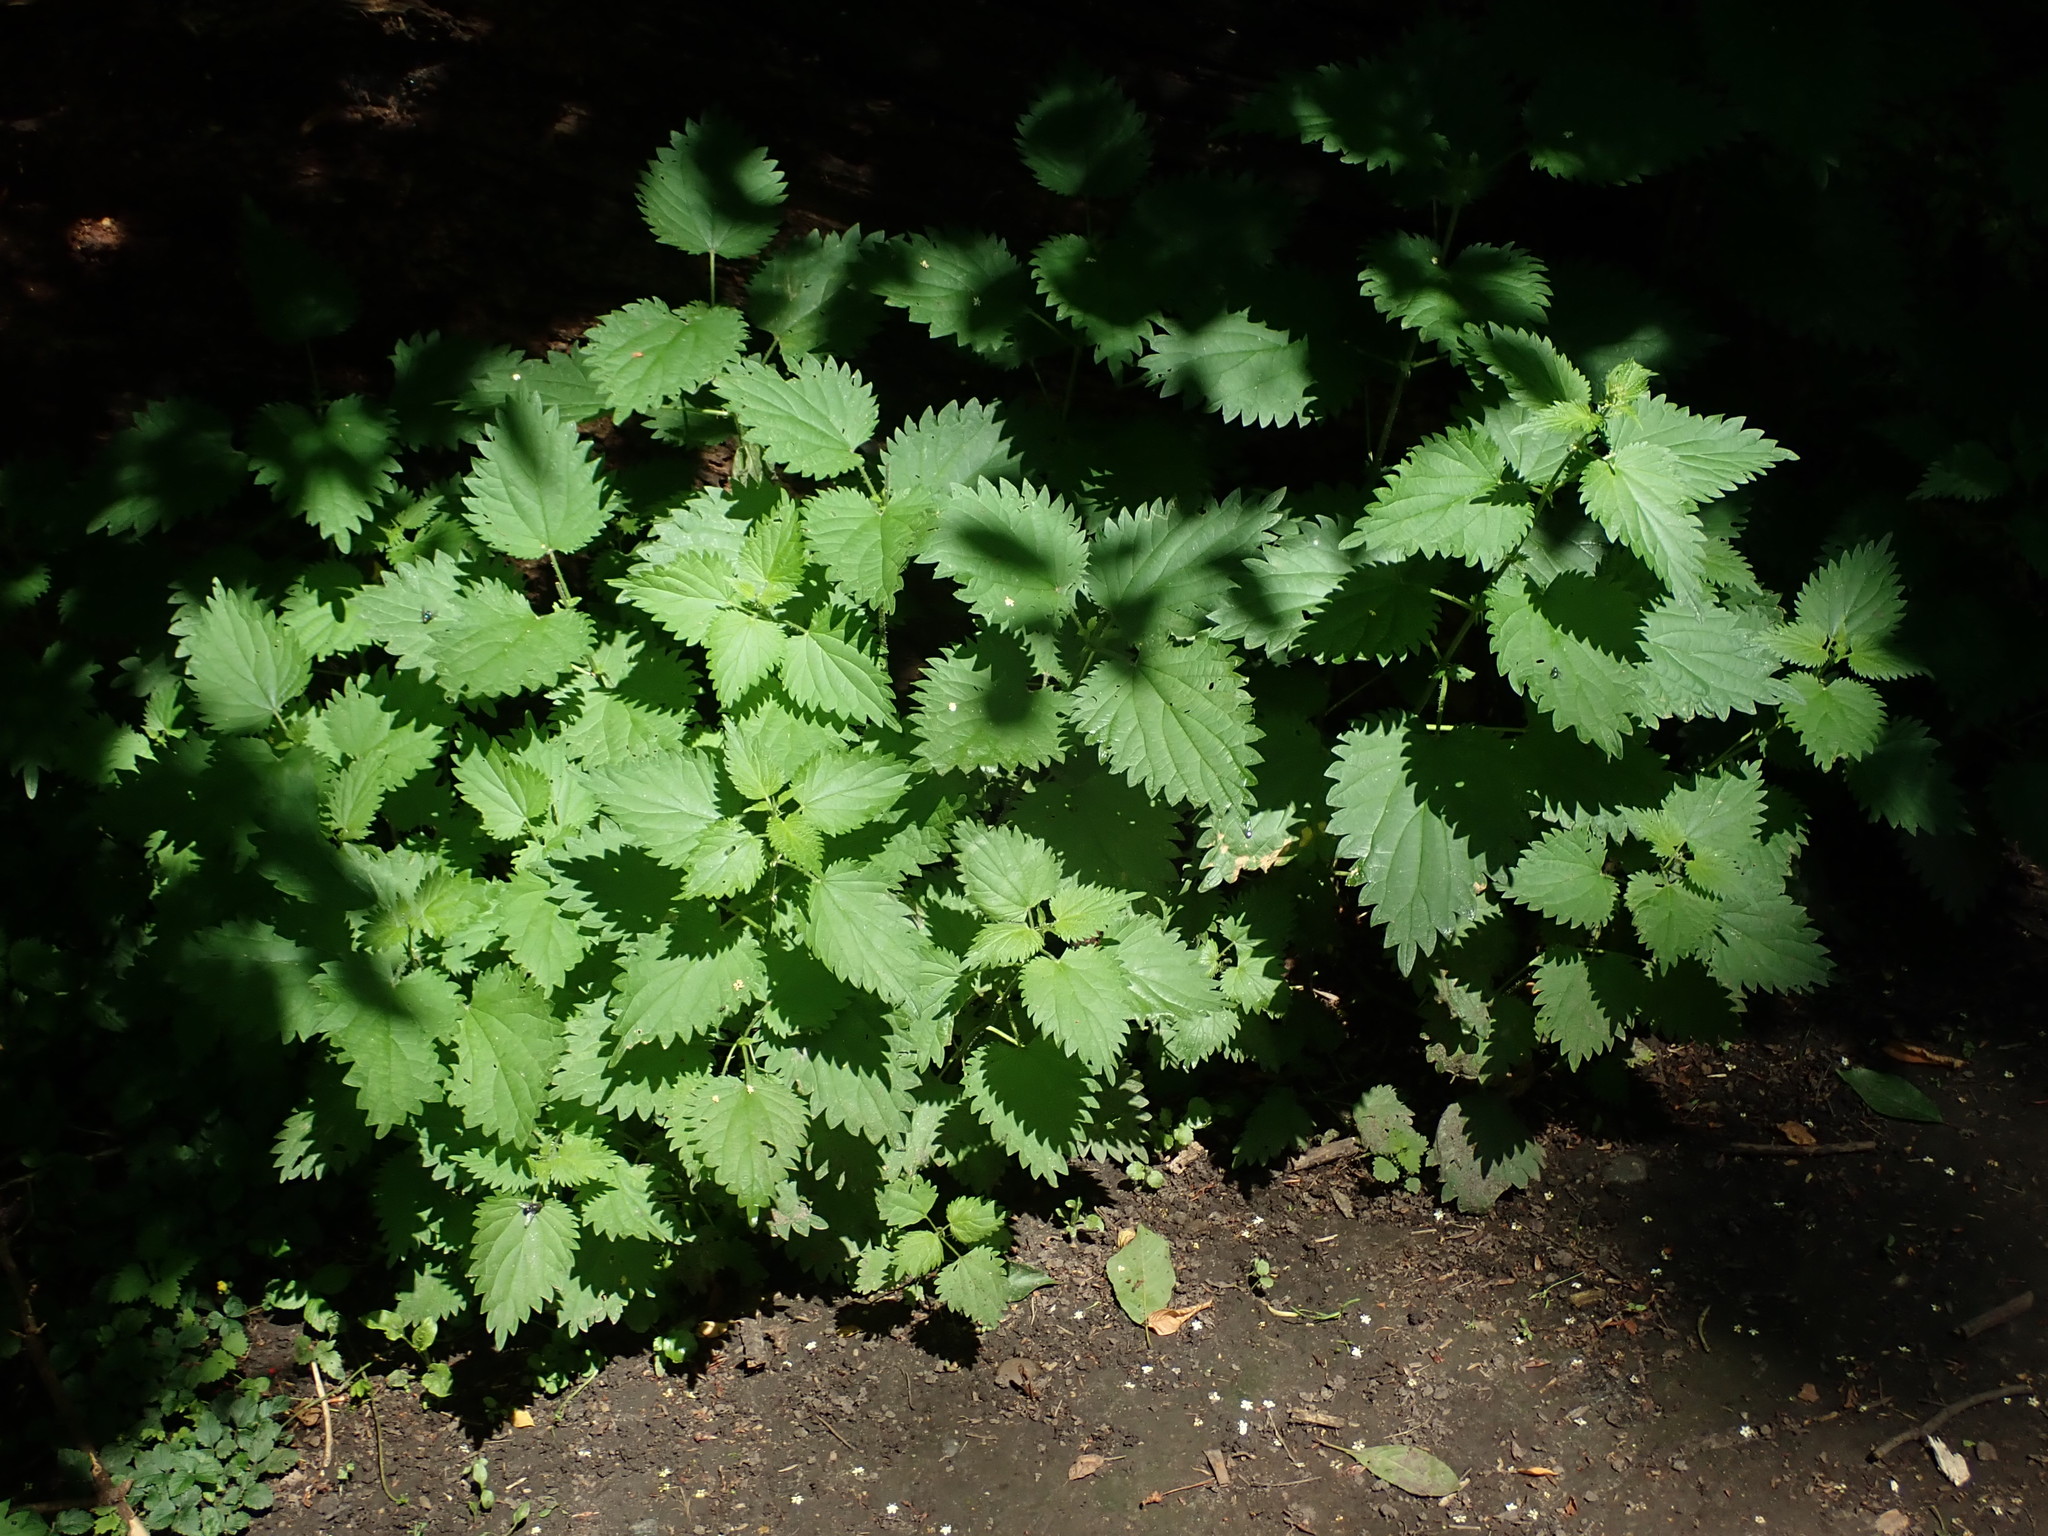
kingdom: Plantae
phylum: Tracheophyta
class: Magnoliopsida
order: Rosales
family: Urticaceae
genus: Urtica
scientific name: Urtica dioica
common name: Common nettle
